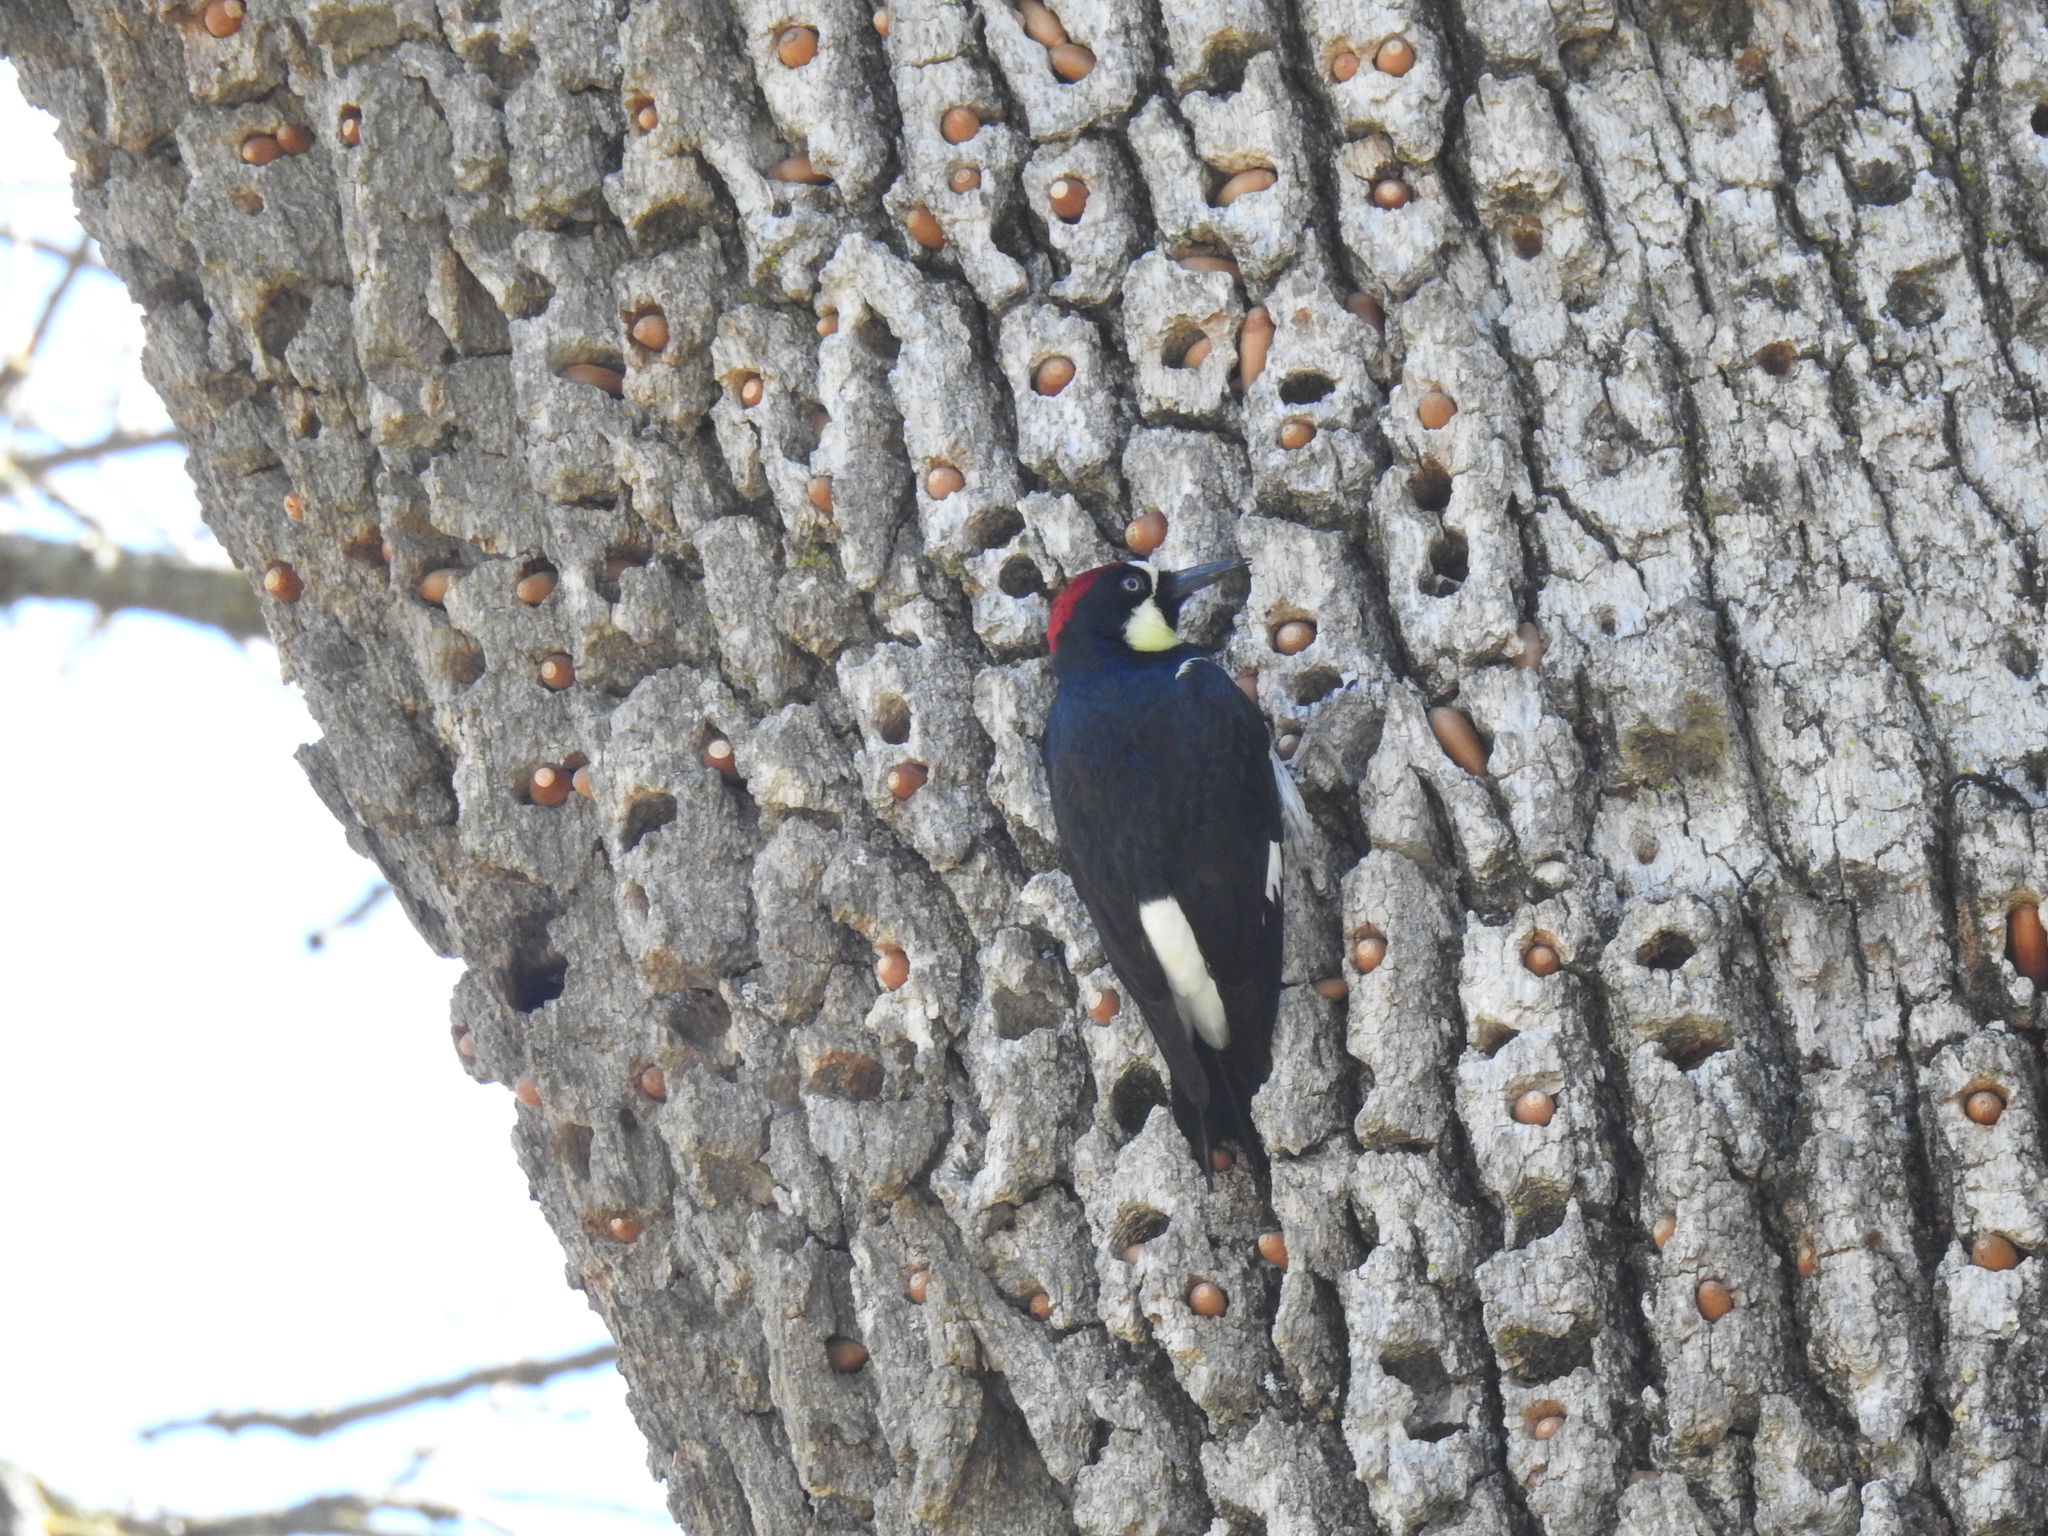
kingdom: Animalia
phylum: Chordata
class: Aves
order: Piciformes
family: Picidae
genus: Melanerpes
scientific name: Melanerpes formicivorus
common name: Acorn woodpecker
